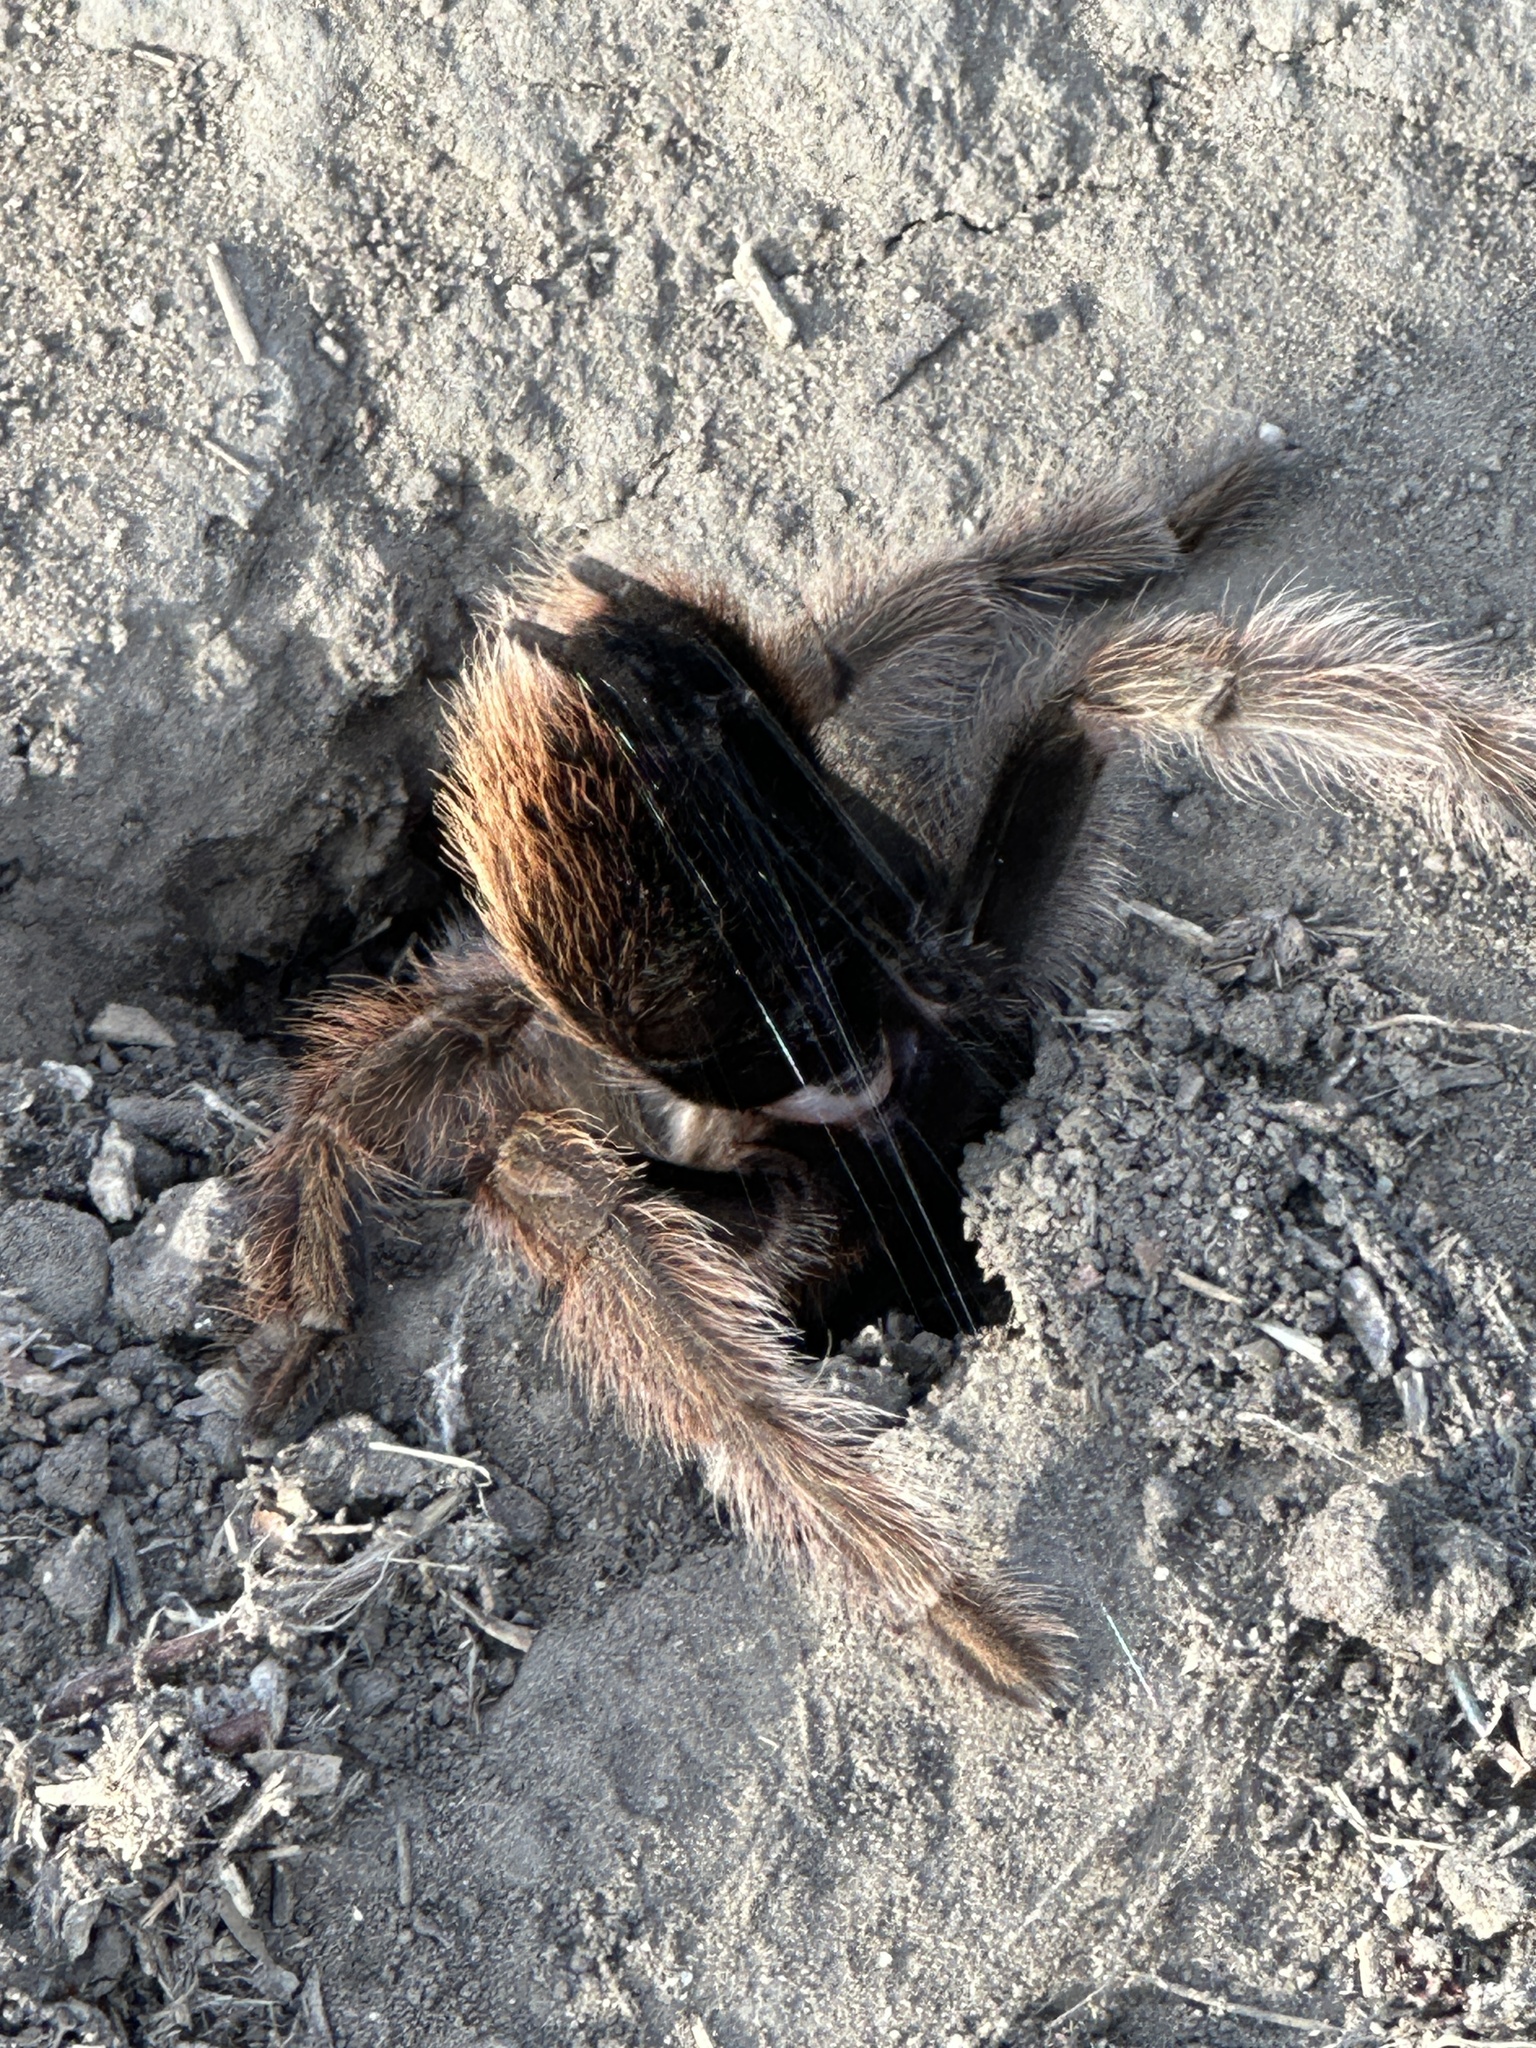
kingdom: Animalia
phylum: Arthropoda
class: Arachnida
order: Araneae
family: Theraphosidae
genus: Aphonopelma
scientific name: Aphonopelma eutylenum
